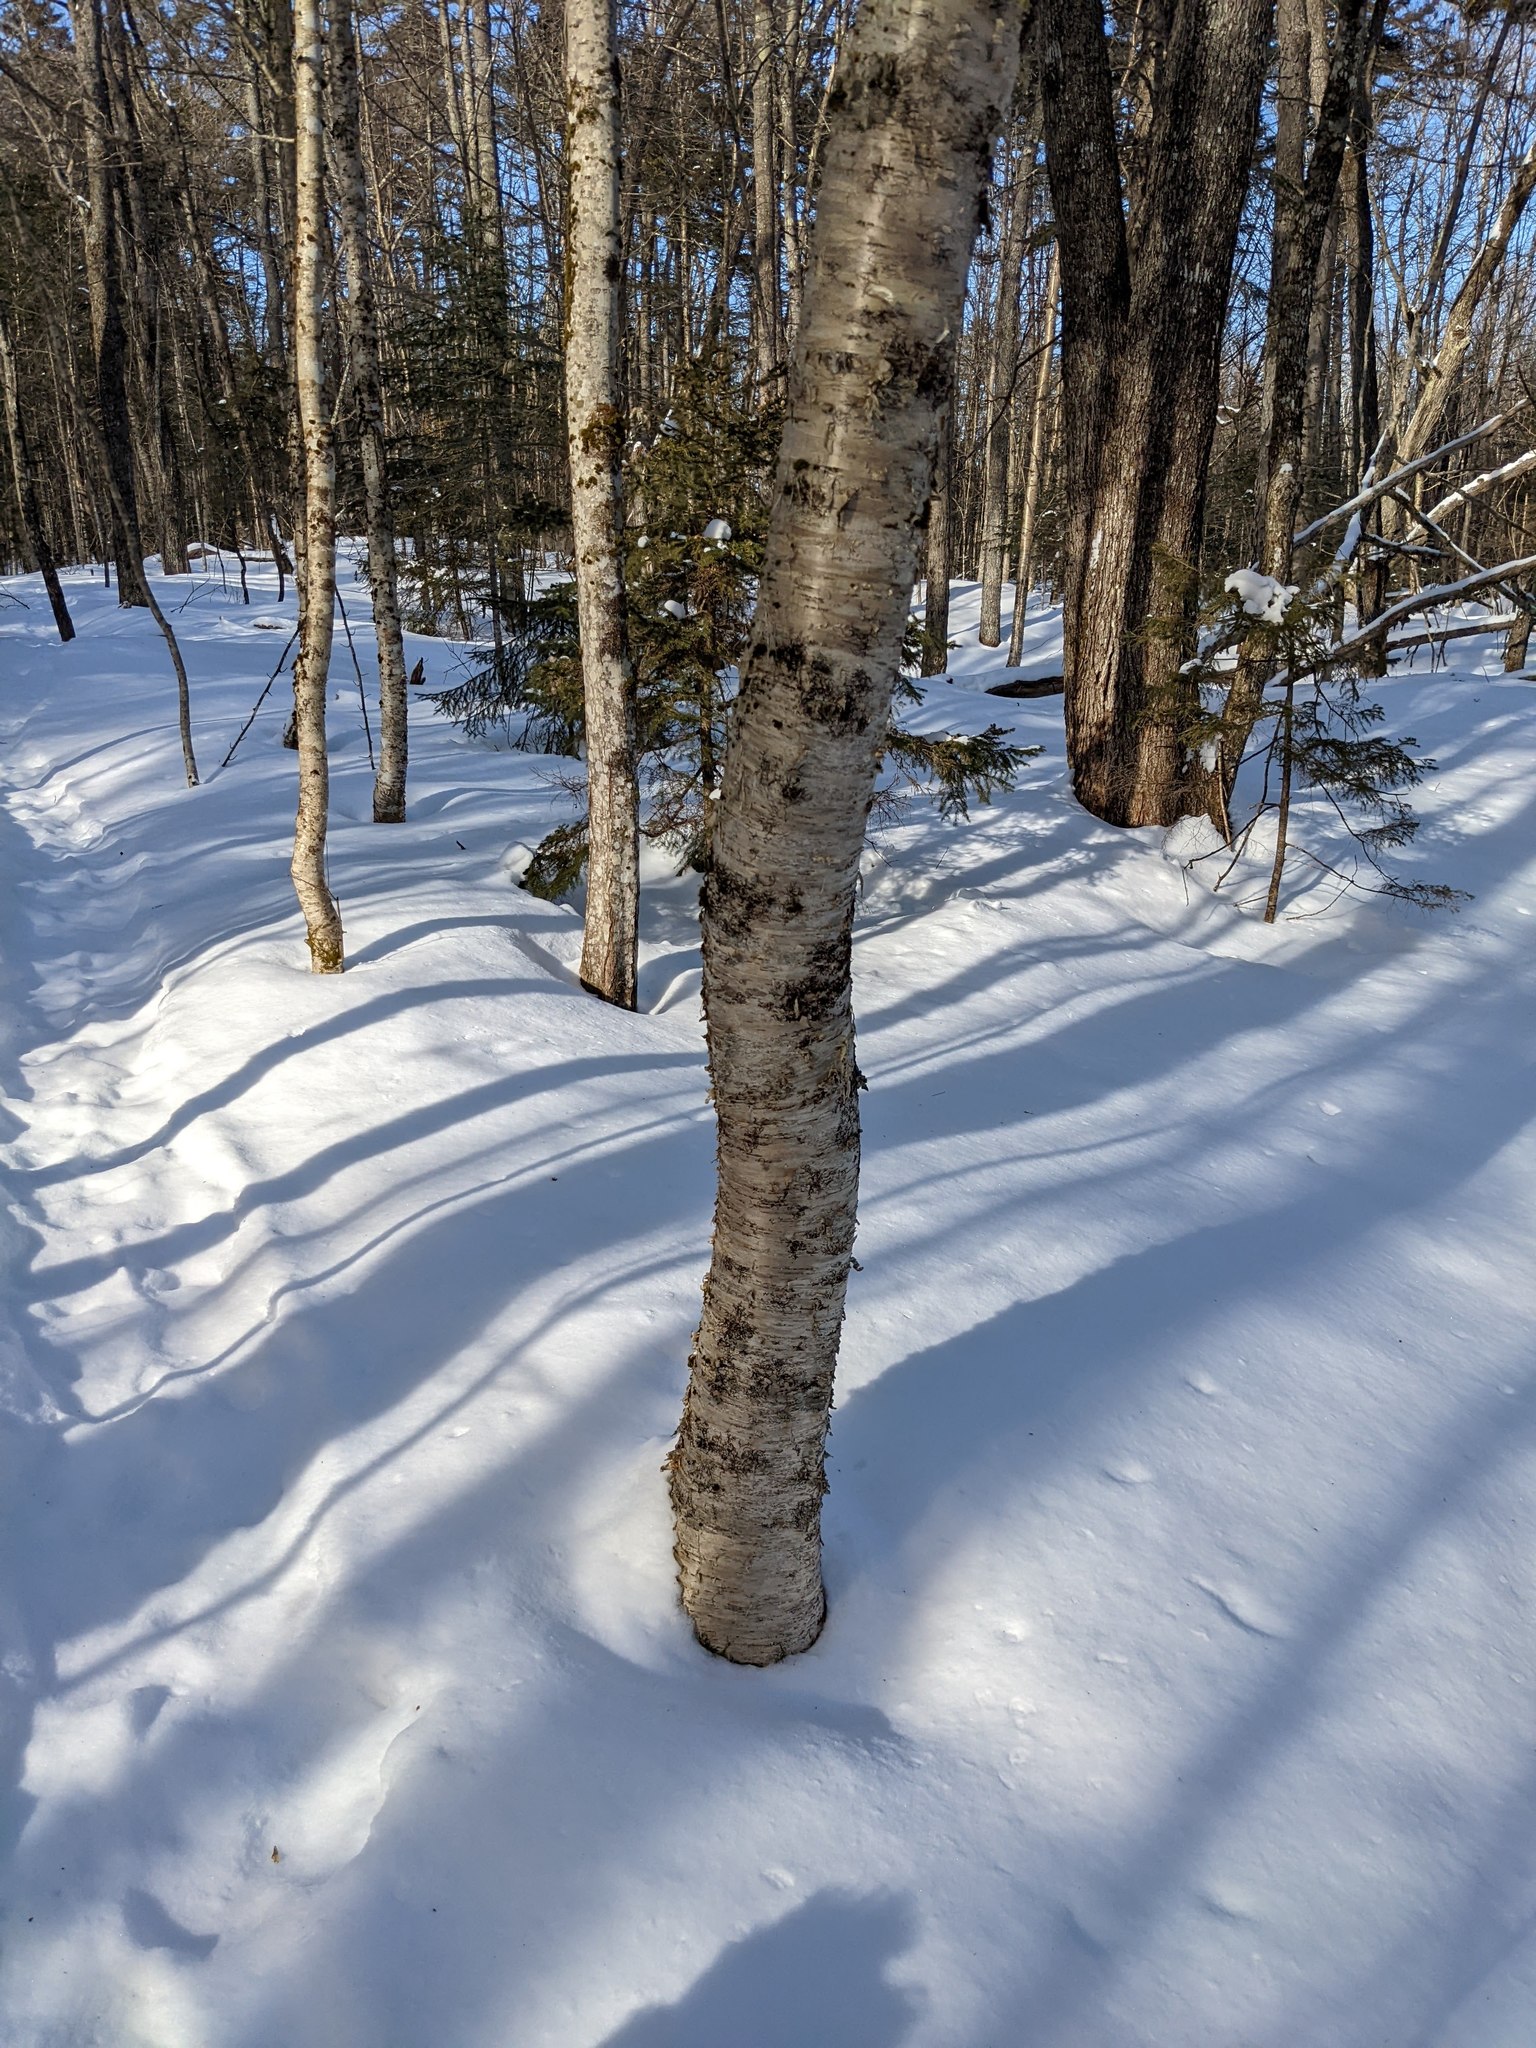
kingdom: Plantae
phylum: Tracheophyta
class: Magnoliopsida
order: Fagales
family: Betulaceae
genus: Betula
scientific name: Betula alleghaniensis
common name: Yellow birch
